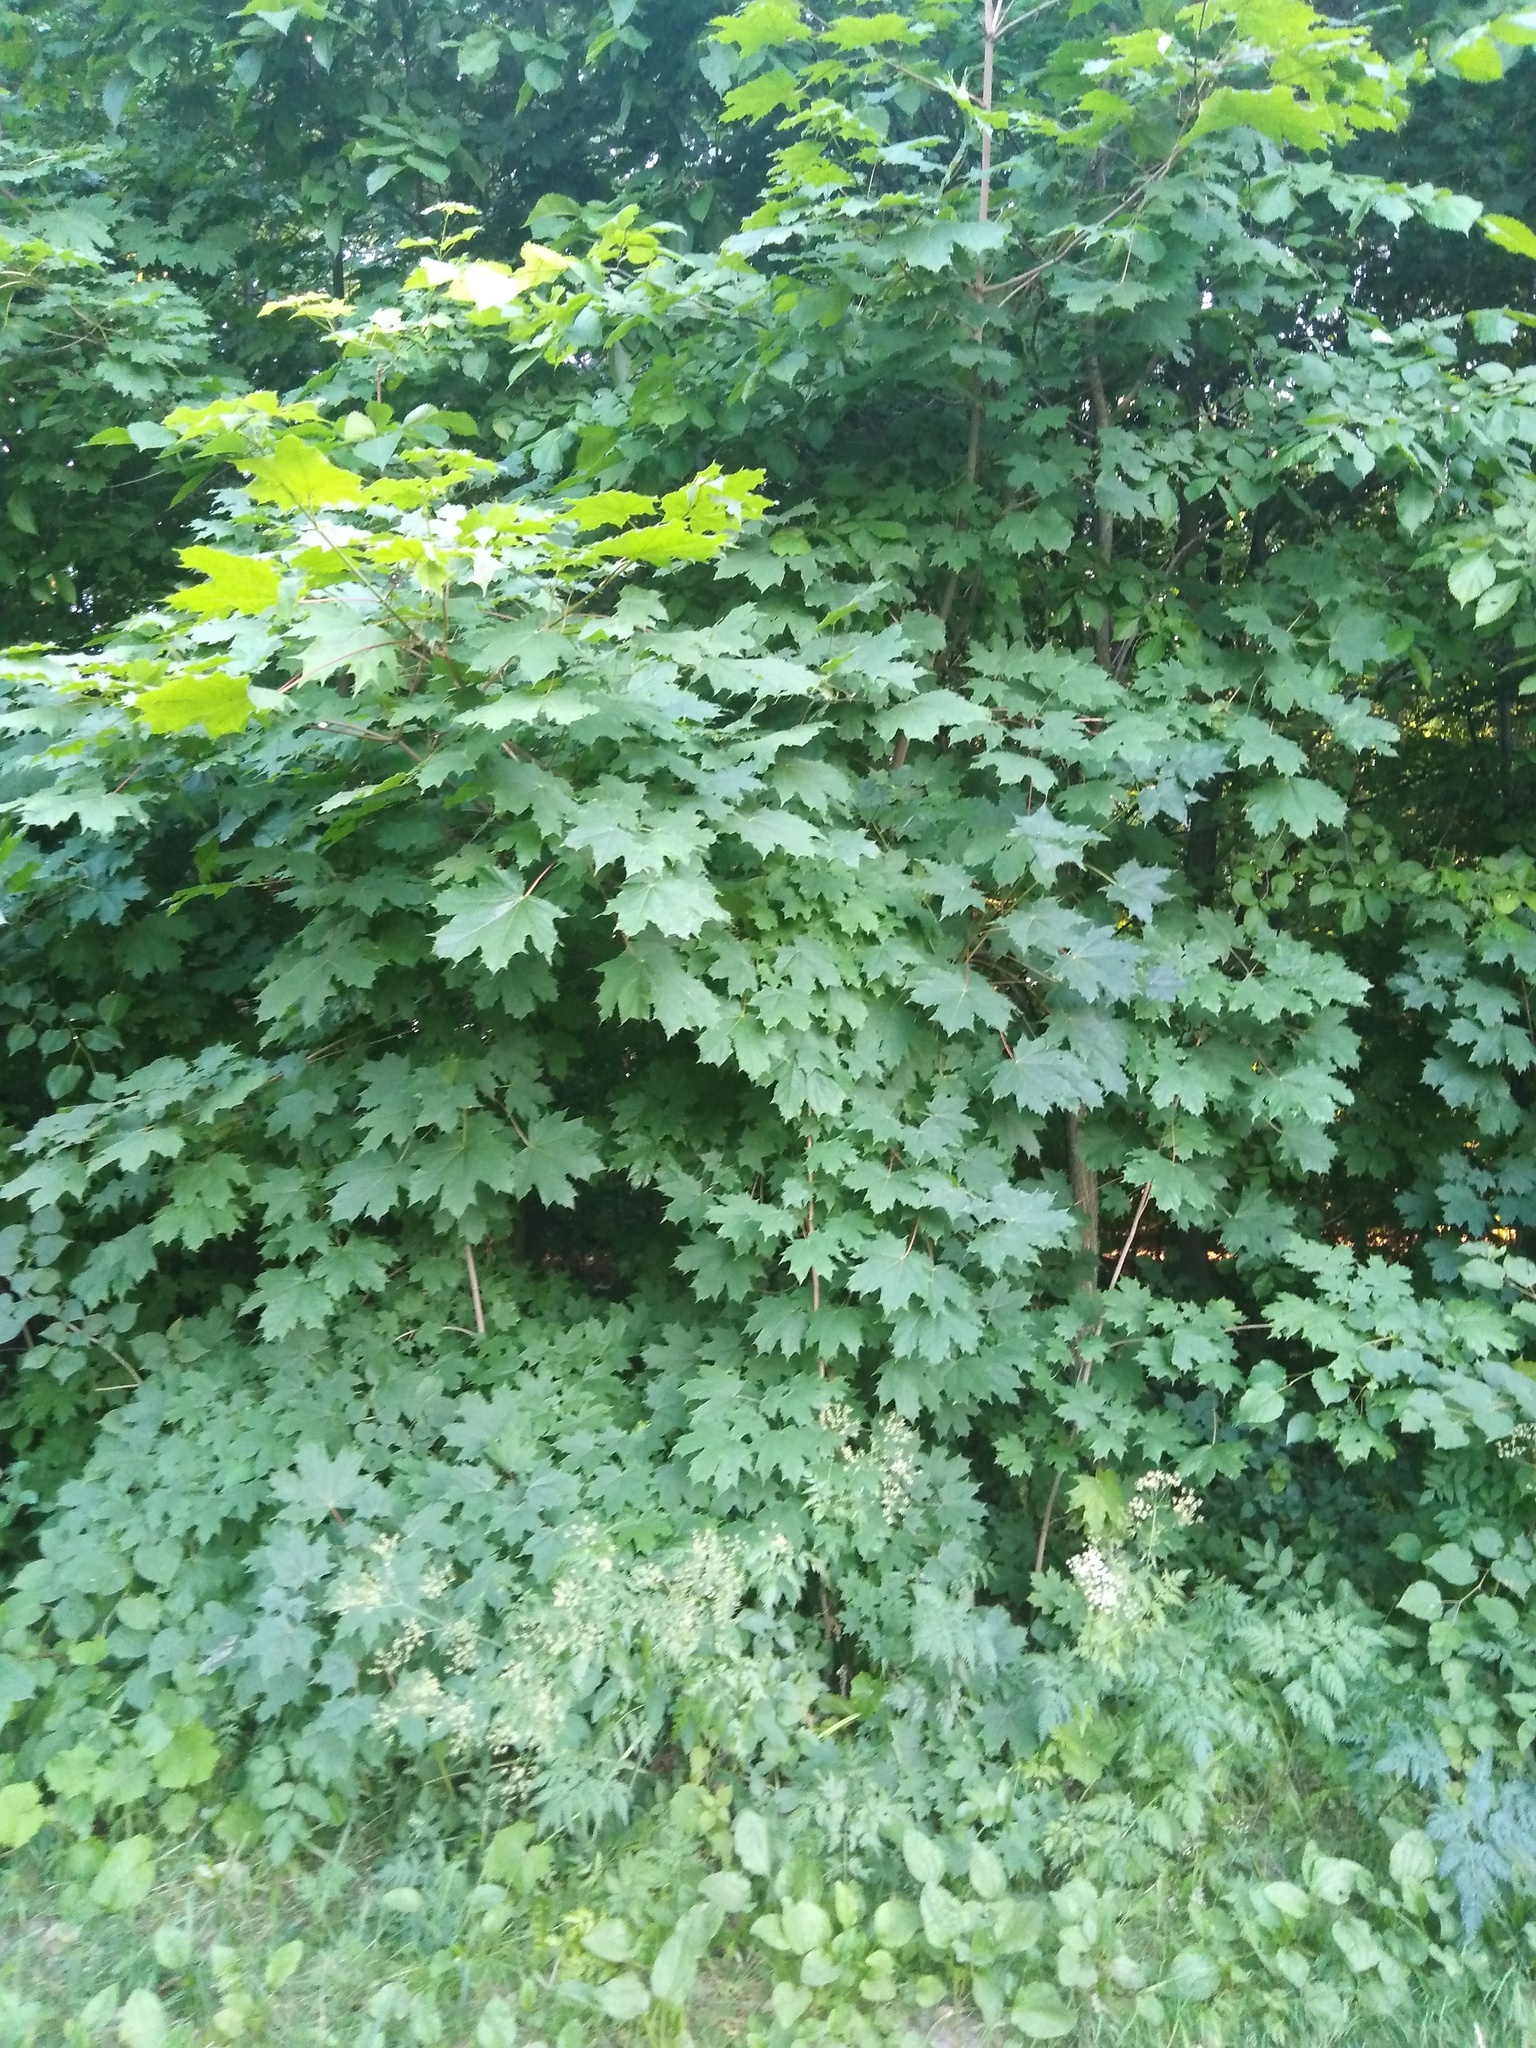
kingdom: Plantae
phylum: Tracheophyta
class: Magnoliopsida
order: Sapindales
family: Sapindaceae
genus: Acer
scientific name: Acer platanoides
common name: Norway maple
